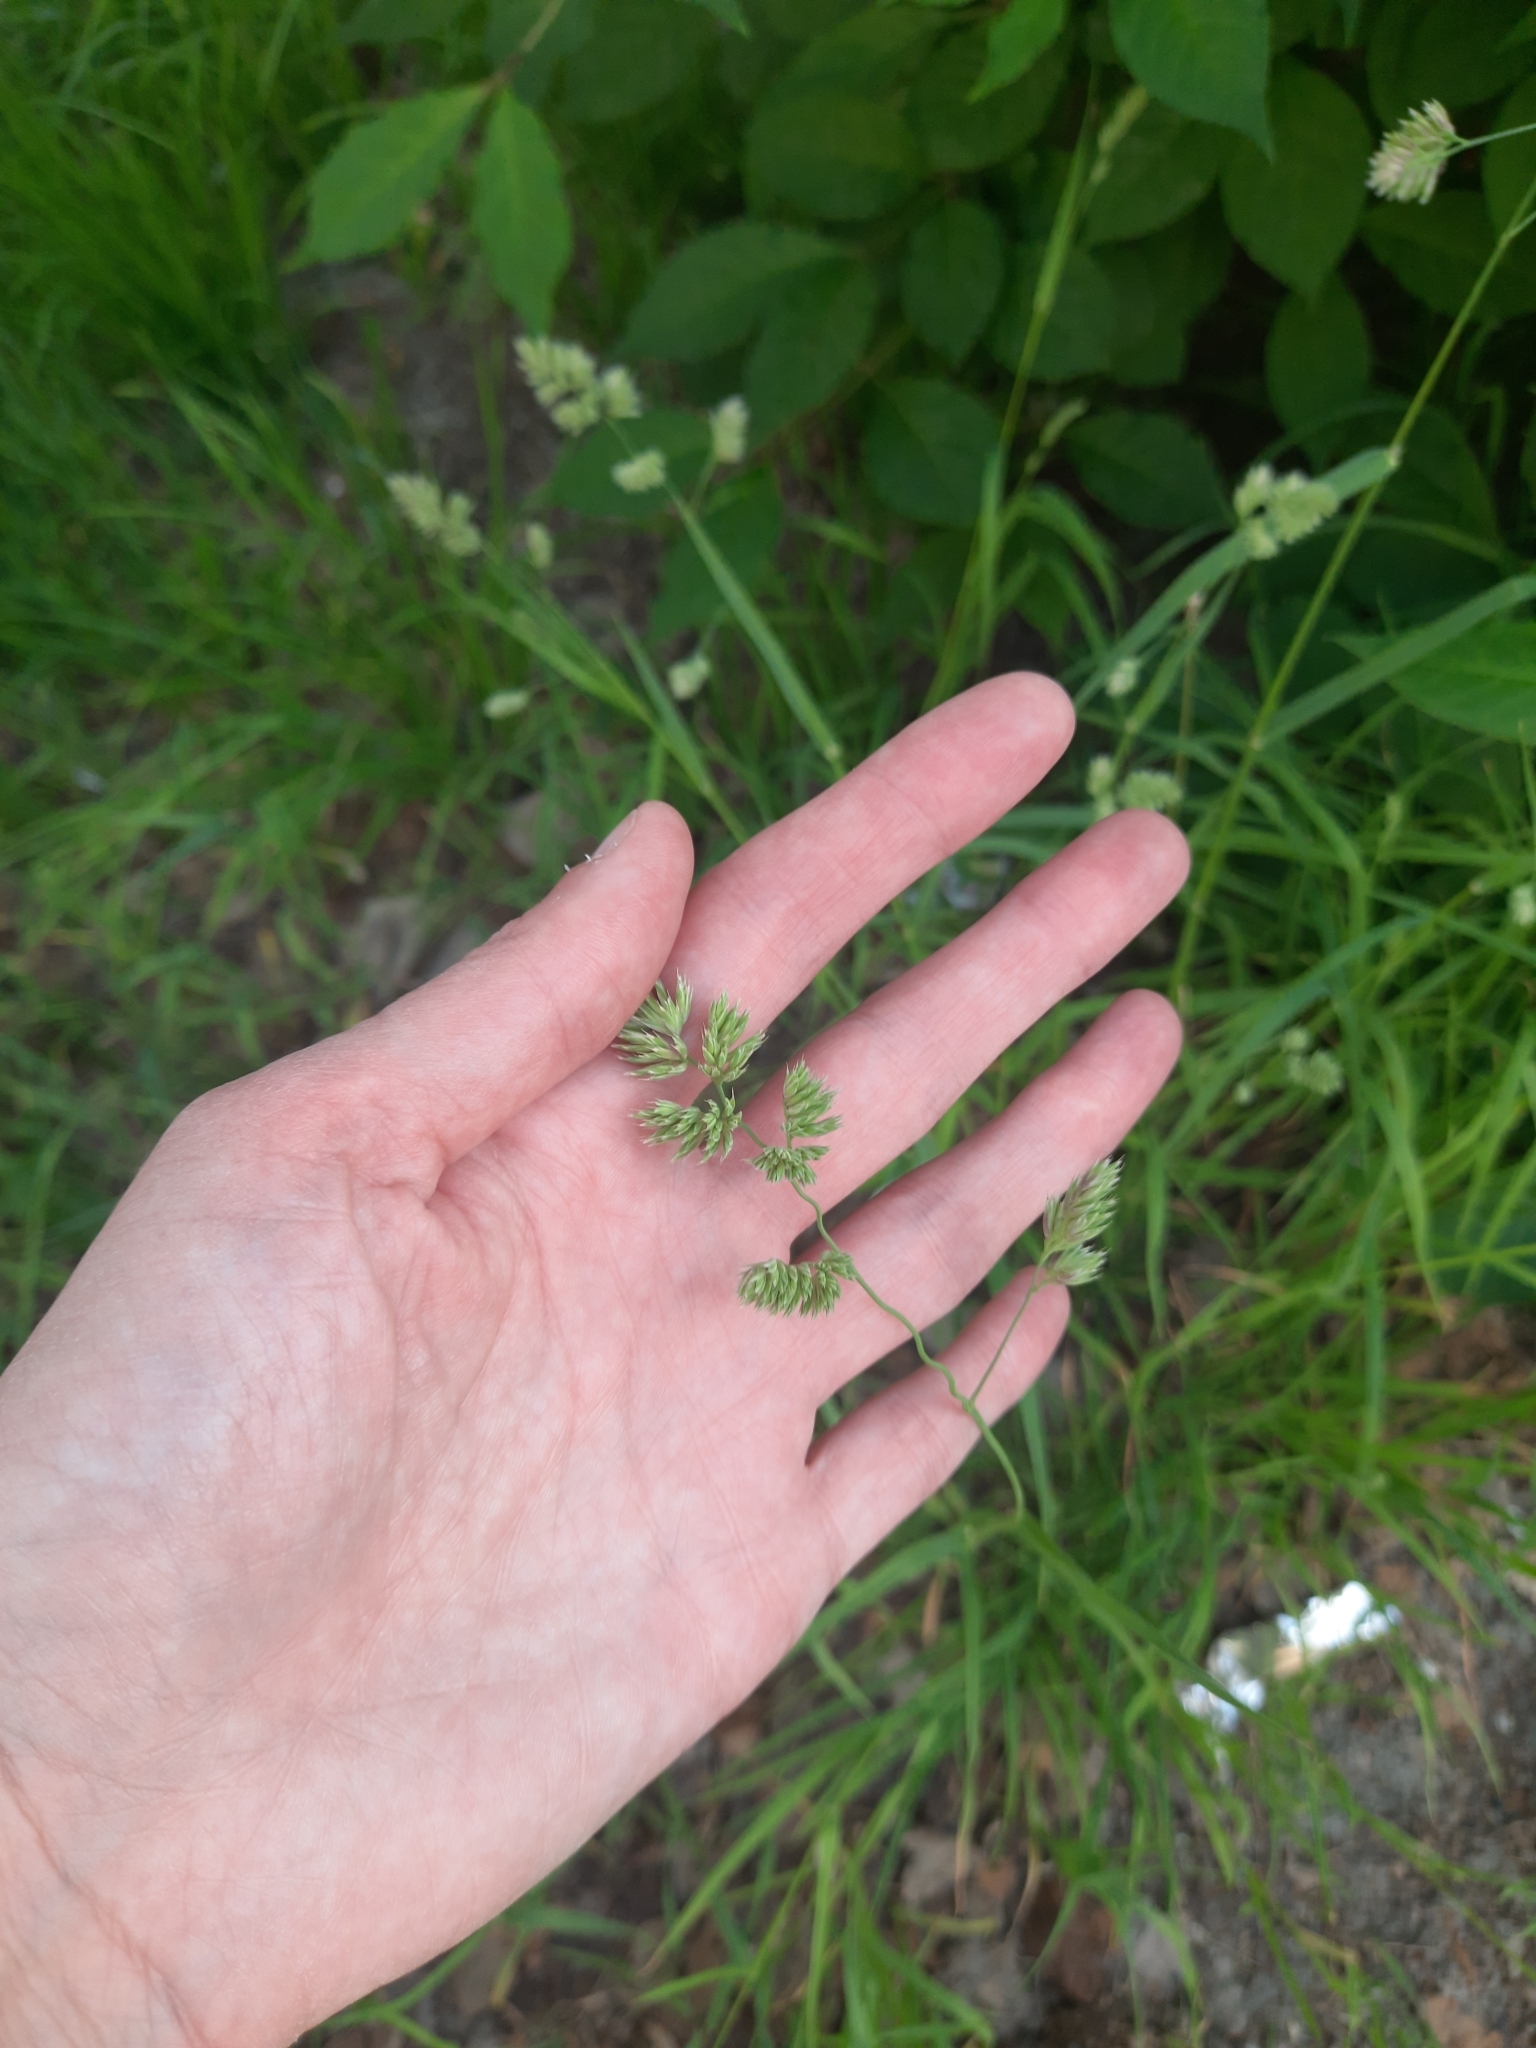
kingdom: Plantae
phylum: Tracheophyta
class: Liliopsida
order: Poales
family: Poaceae
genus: Dactylis
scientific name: Dactylis glomerata
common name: Orchardgrass
